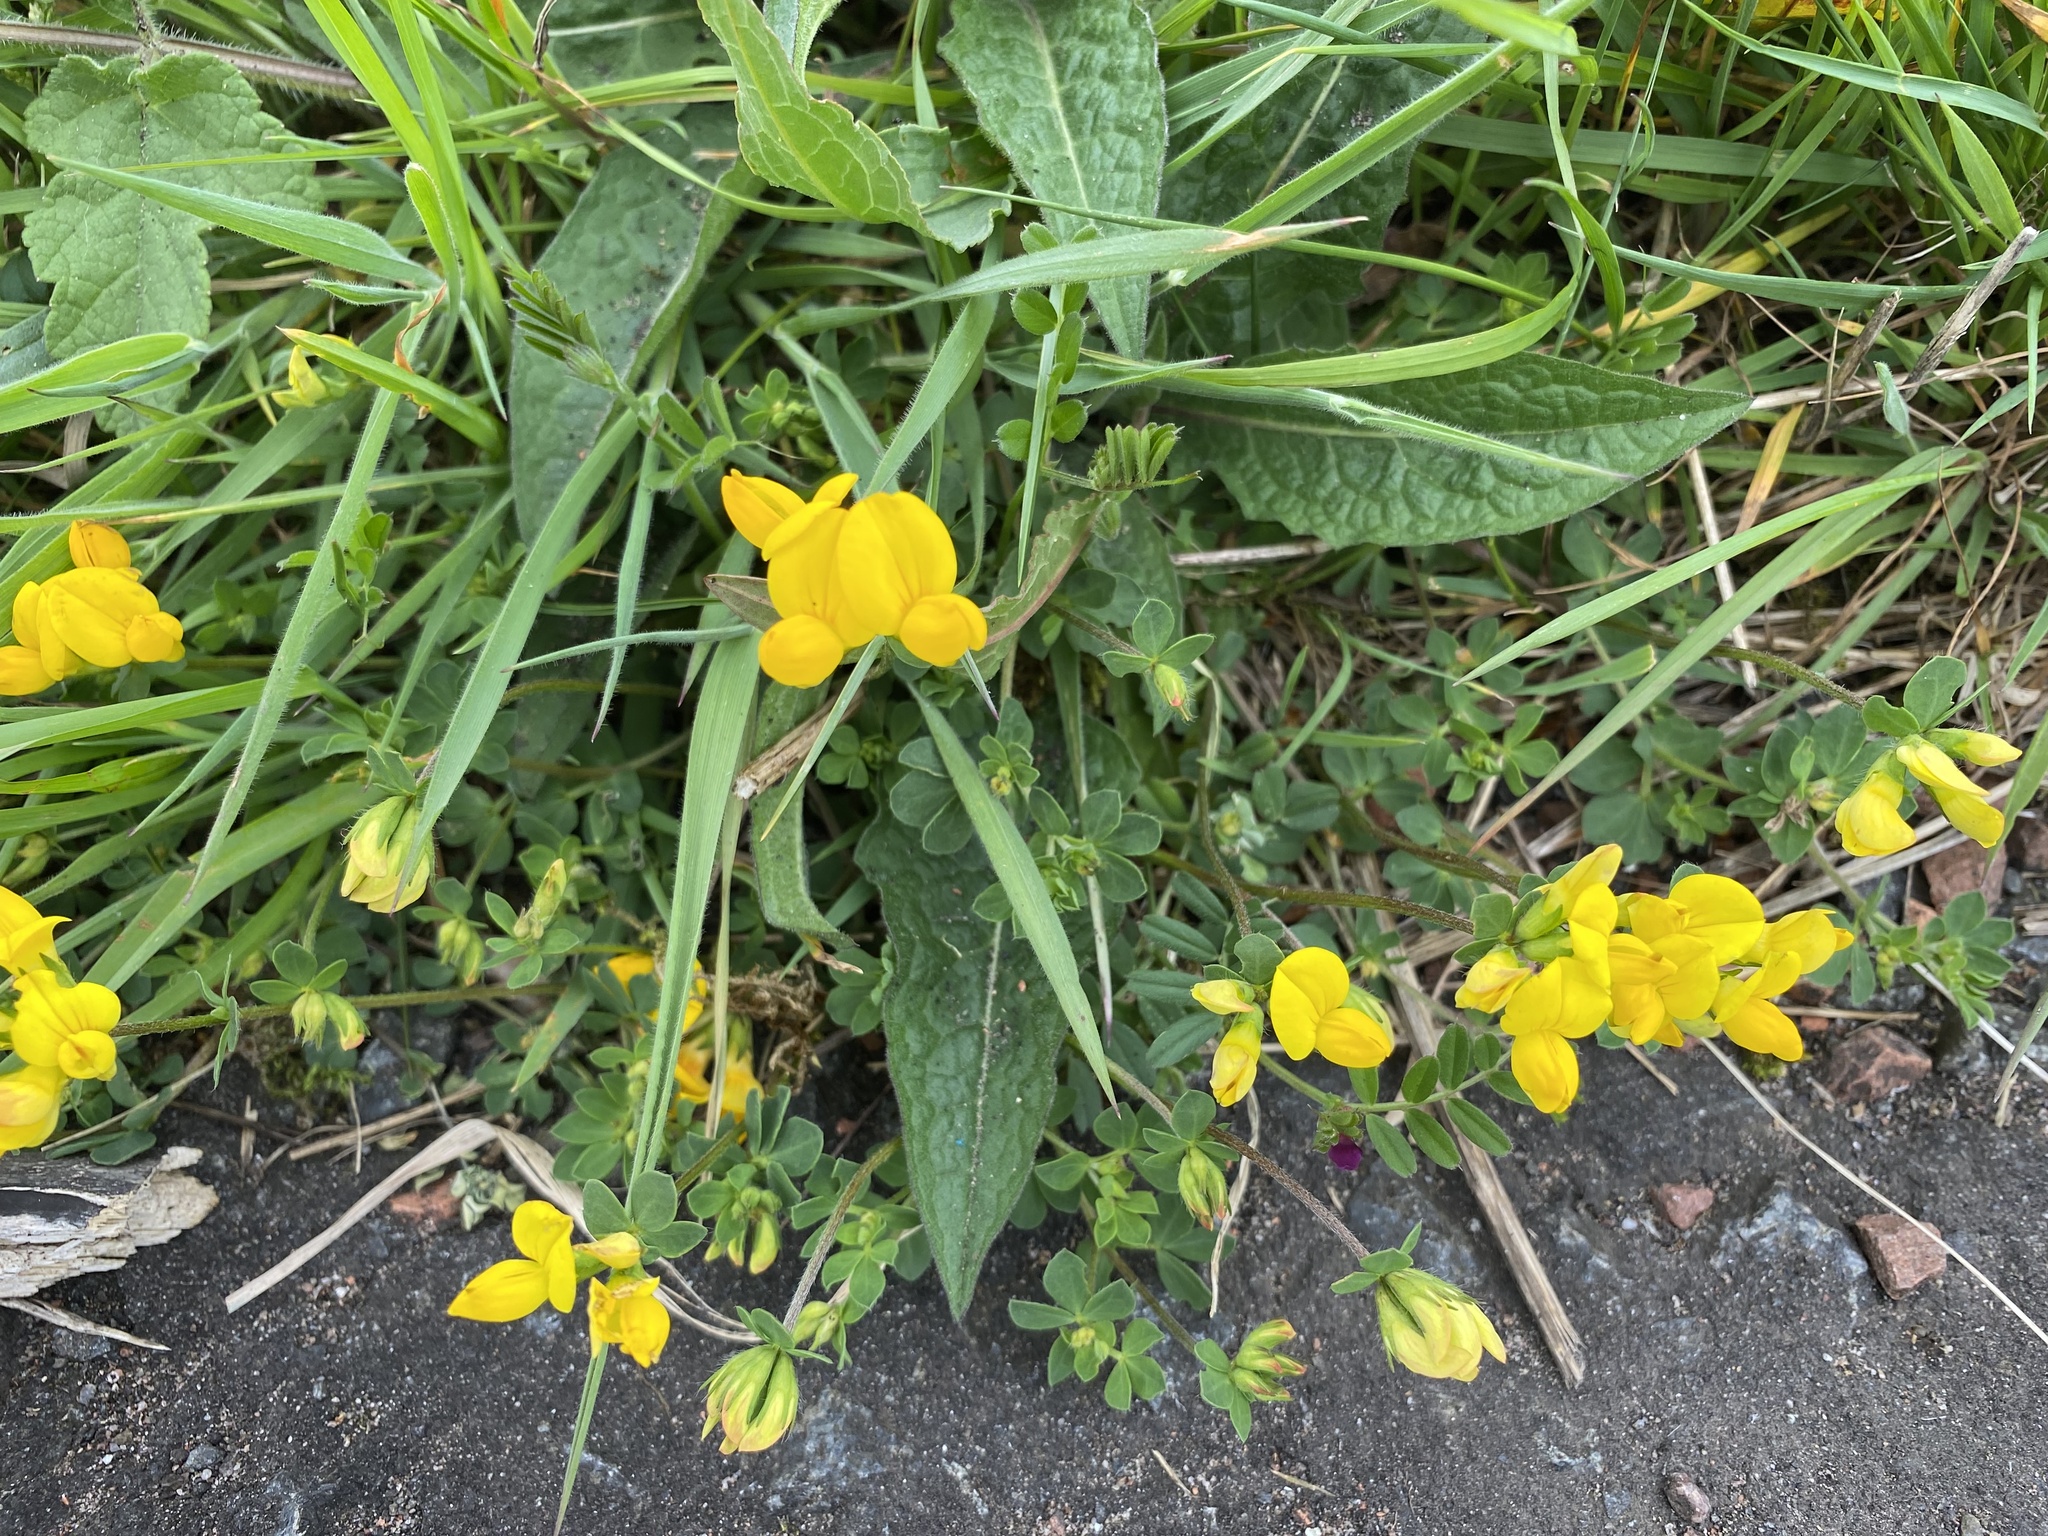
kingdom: Plantae
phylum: Tracheophyta
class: Magnoliopsida
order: Fabales
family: Fabaceae
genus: Lotus
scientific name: Lotus corniculatus
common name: Common bird's-foot-trefoil
